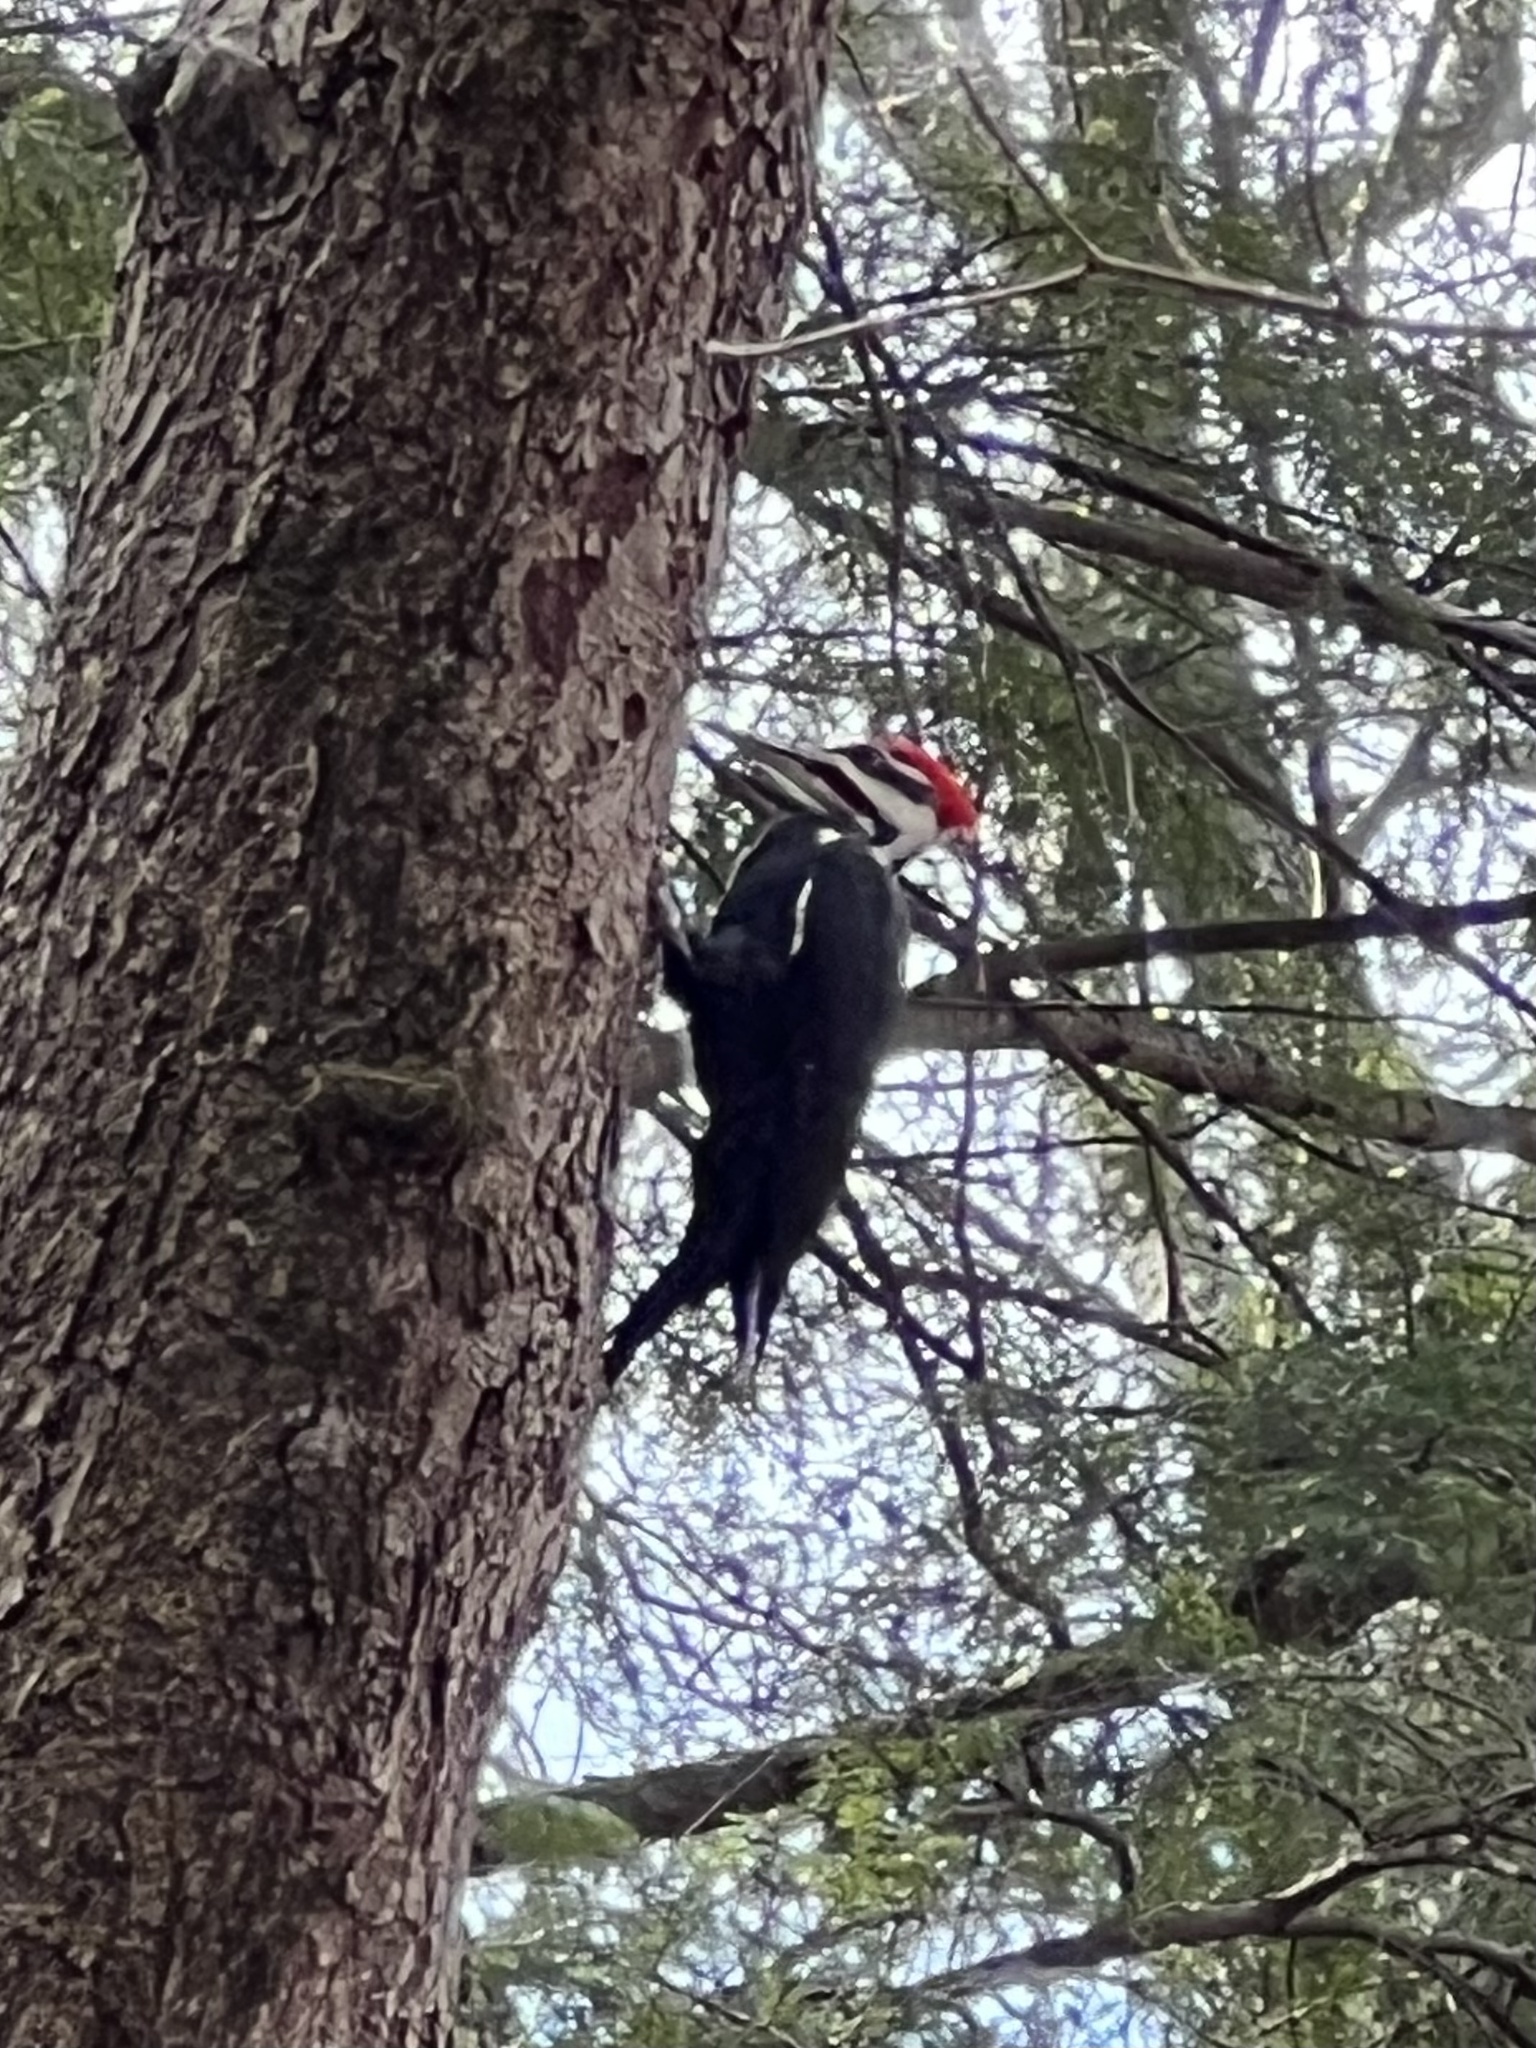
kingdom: Animalia
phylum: Chordata
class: Aves
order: Piciformes
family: Picidae
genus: Dryocopus
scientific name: Dryocopus pileatus
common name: Pileated woodpecker
